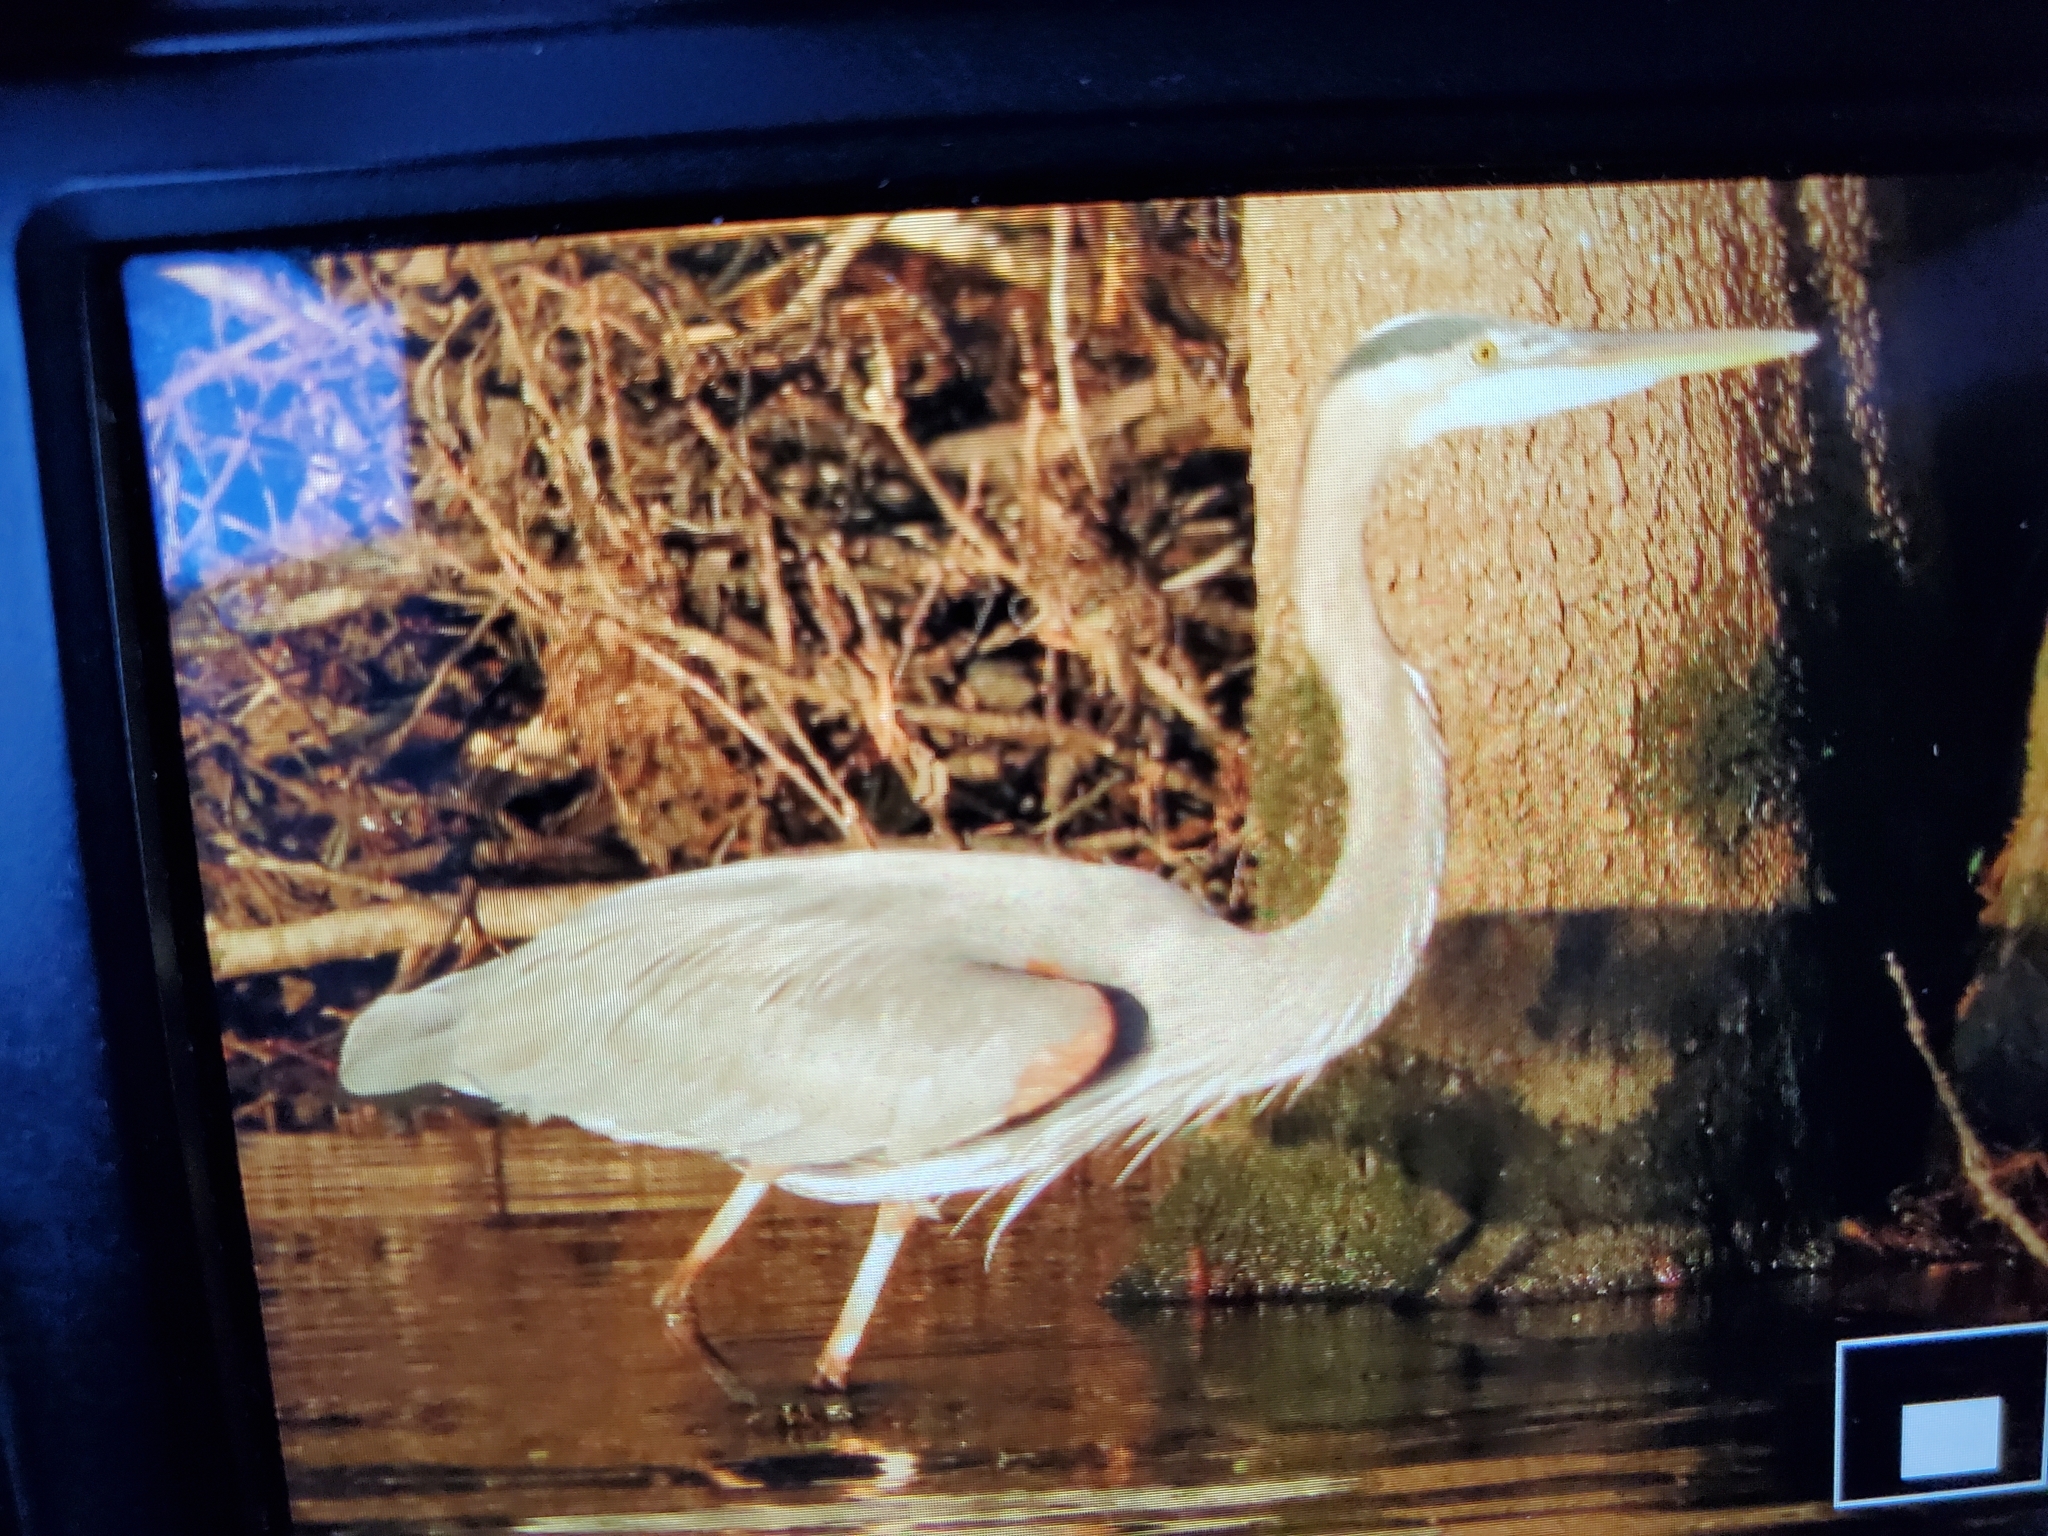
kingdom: Animalia
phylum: Chordata
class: Aves
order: Pelecaniformes
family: Ardeidae
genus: Ardea
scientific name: Ardea herodias
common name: Great blue heron
